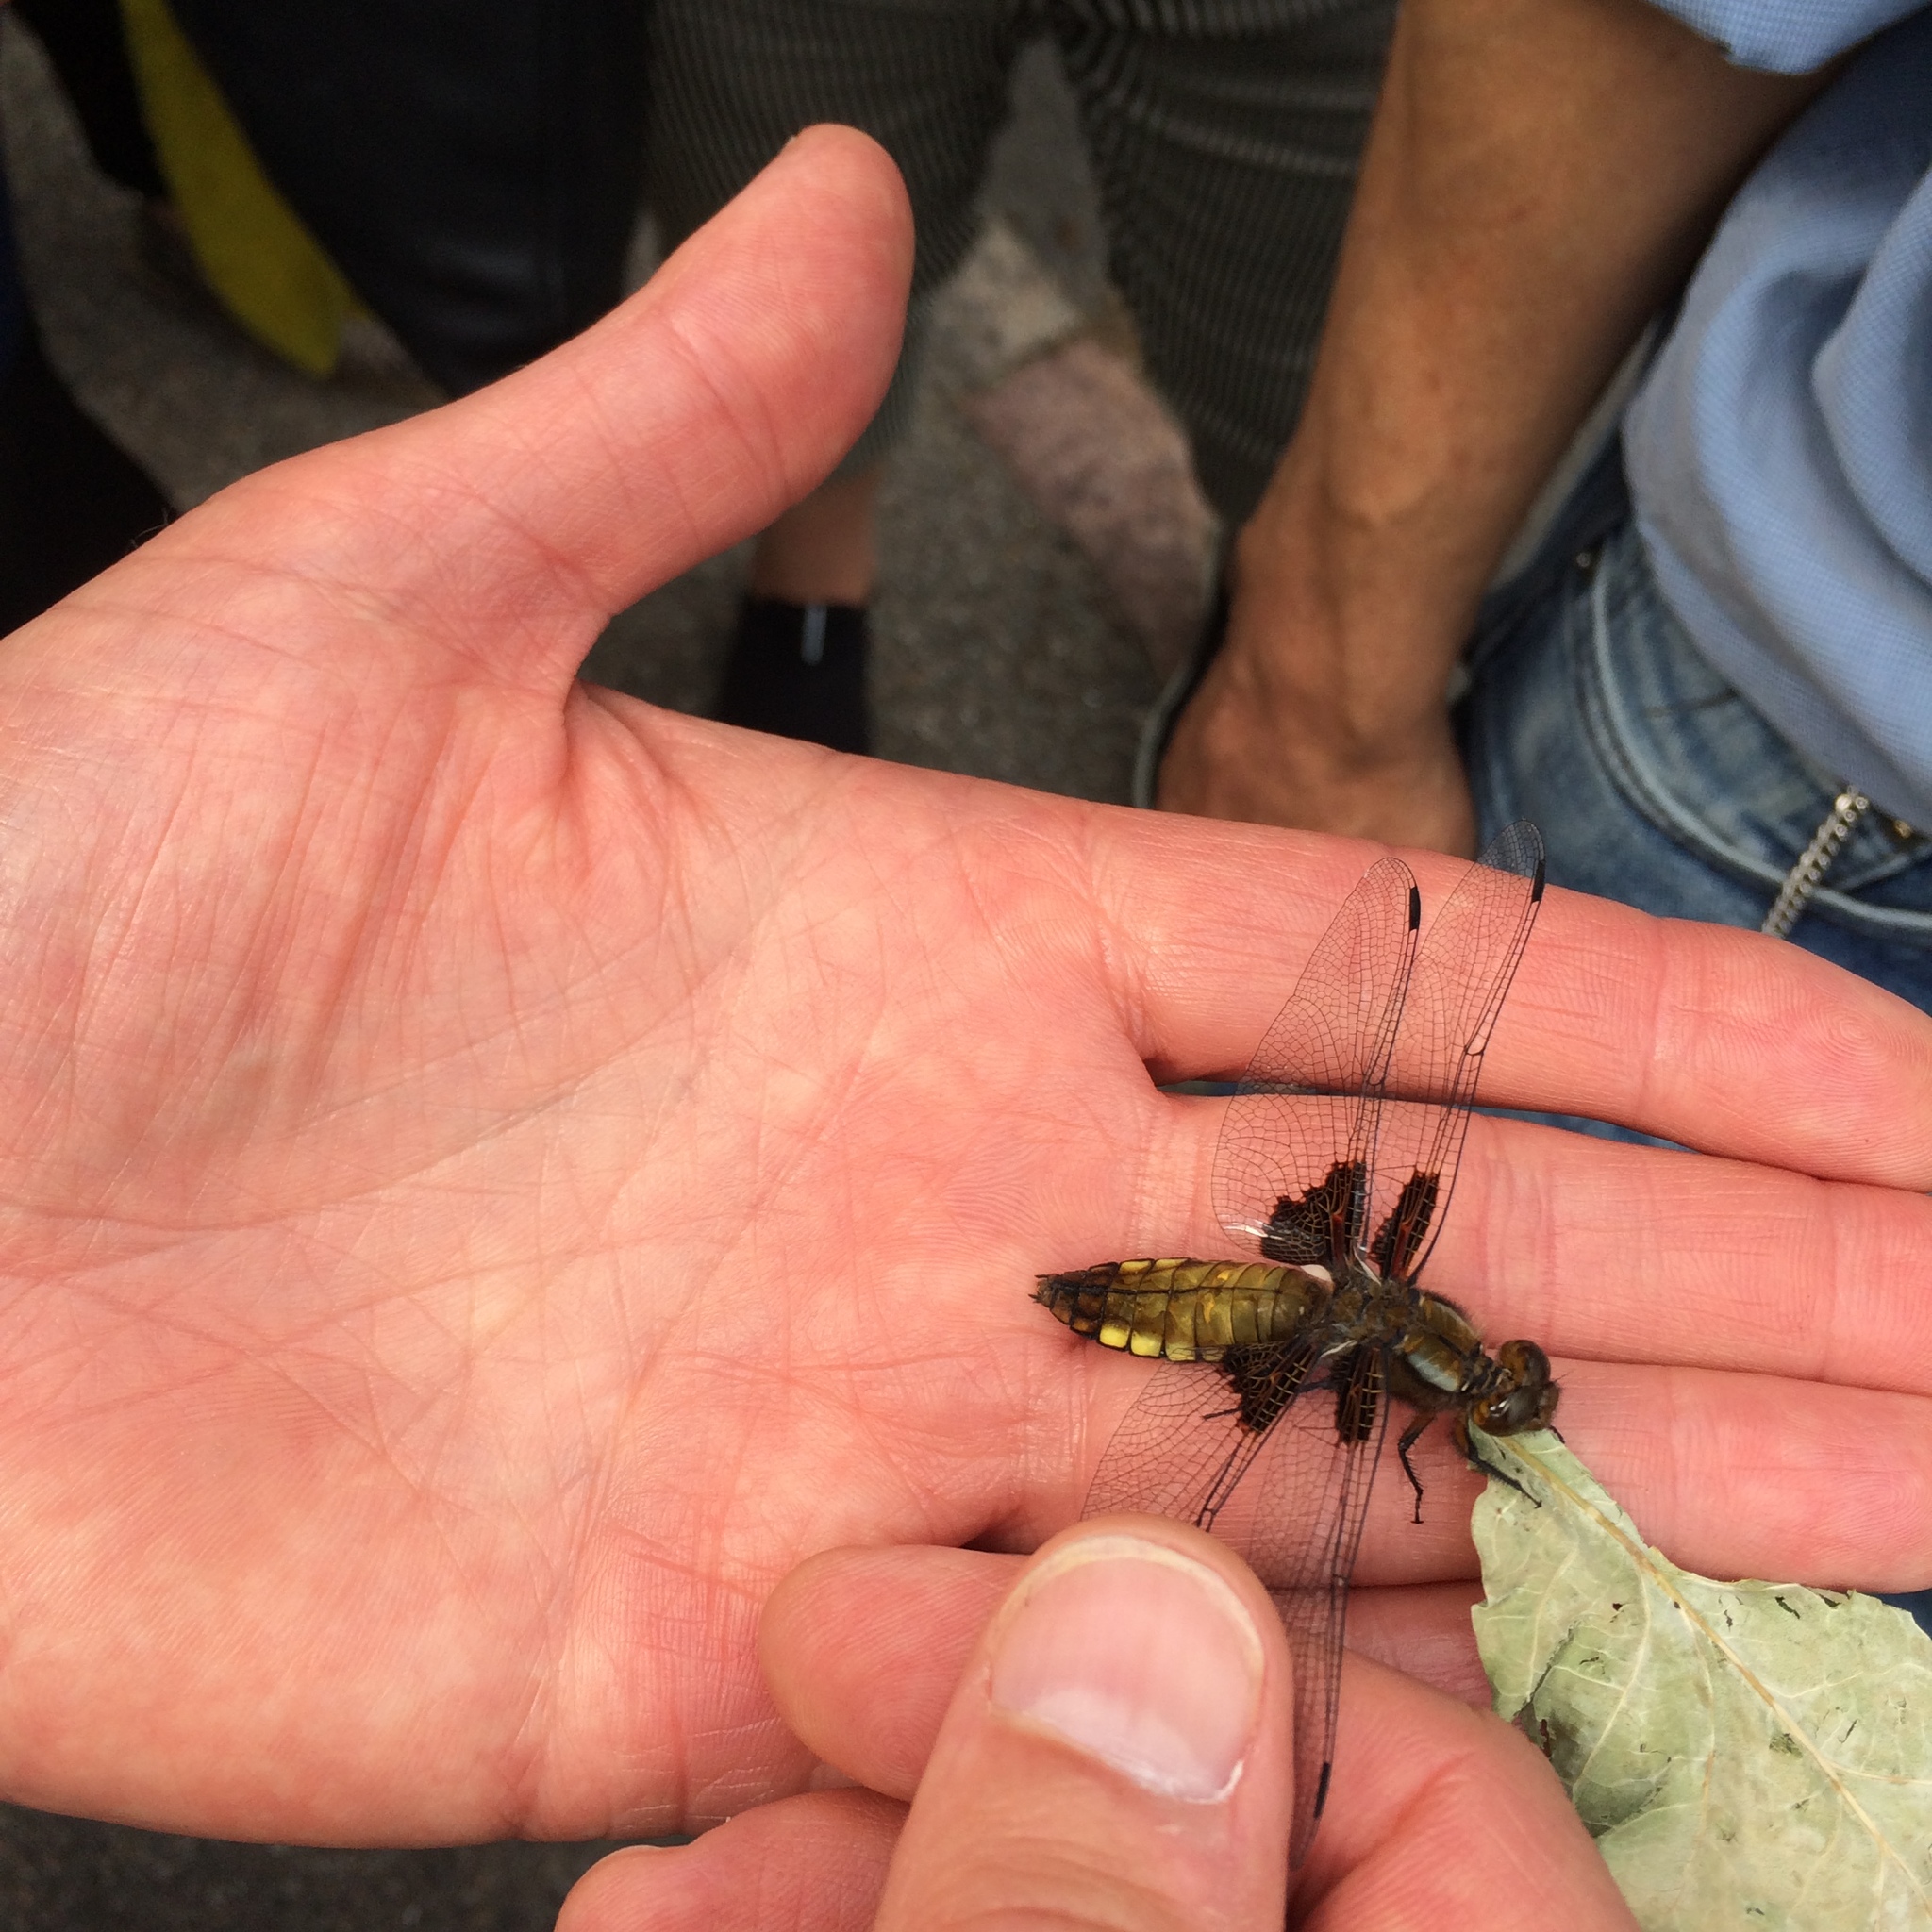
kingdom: Animalia
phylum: Arthropoda
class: Insecta
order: Odonata
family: Libellulidae
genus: Libellula
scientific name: Libellula depressa
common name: Broad-bodied chaser
